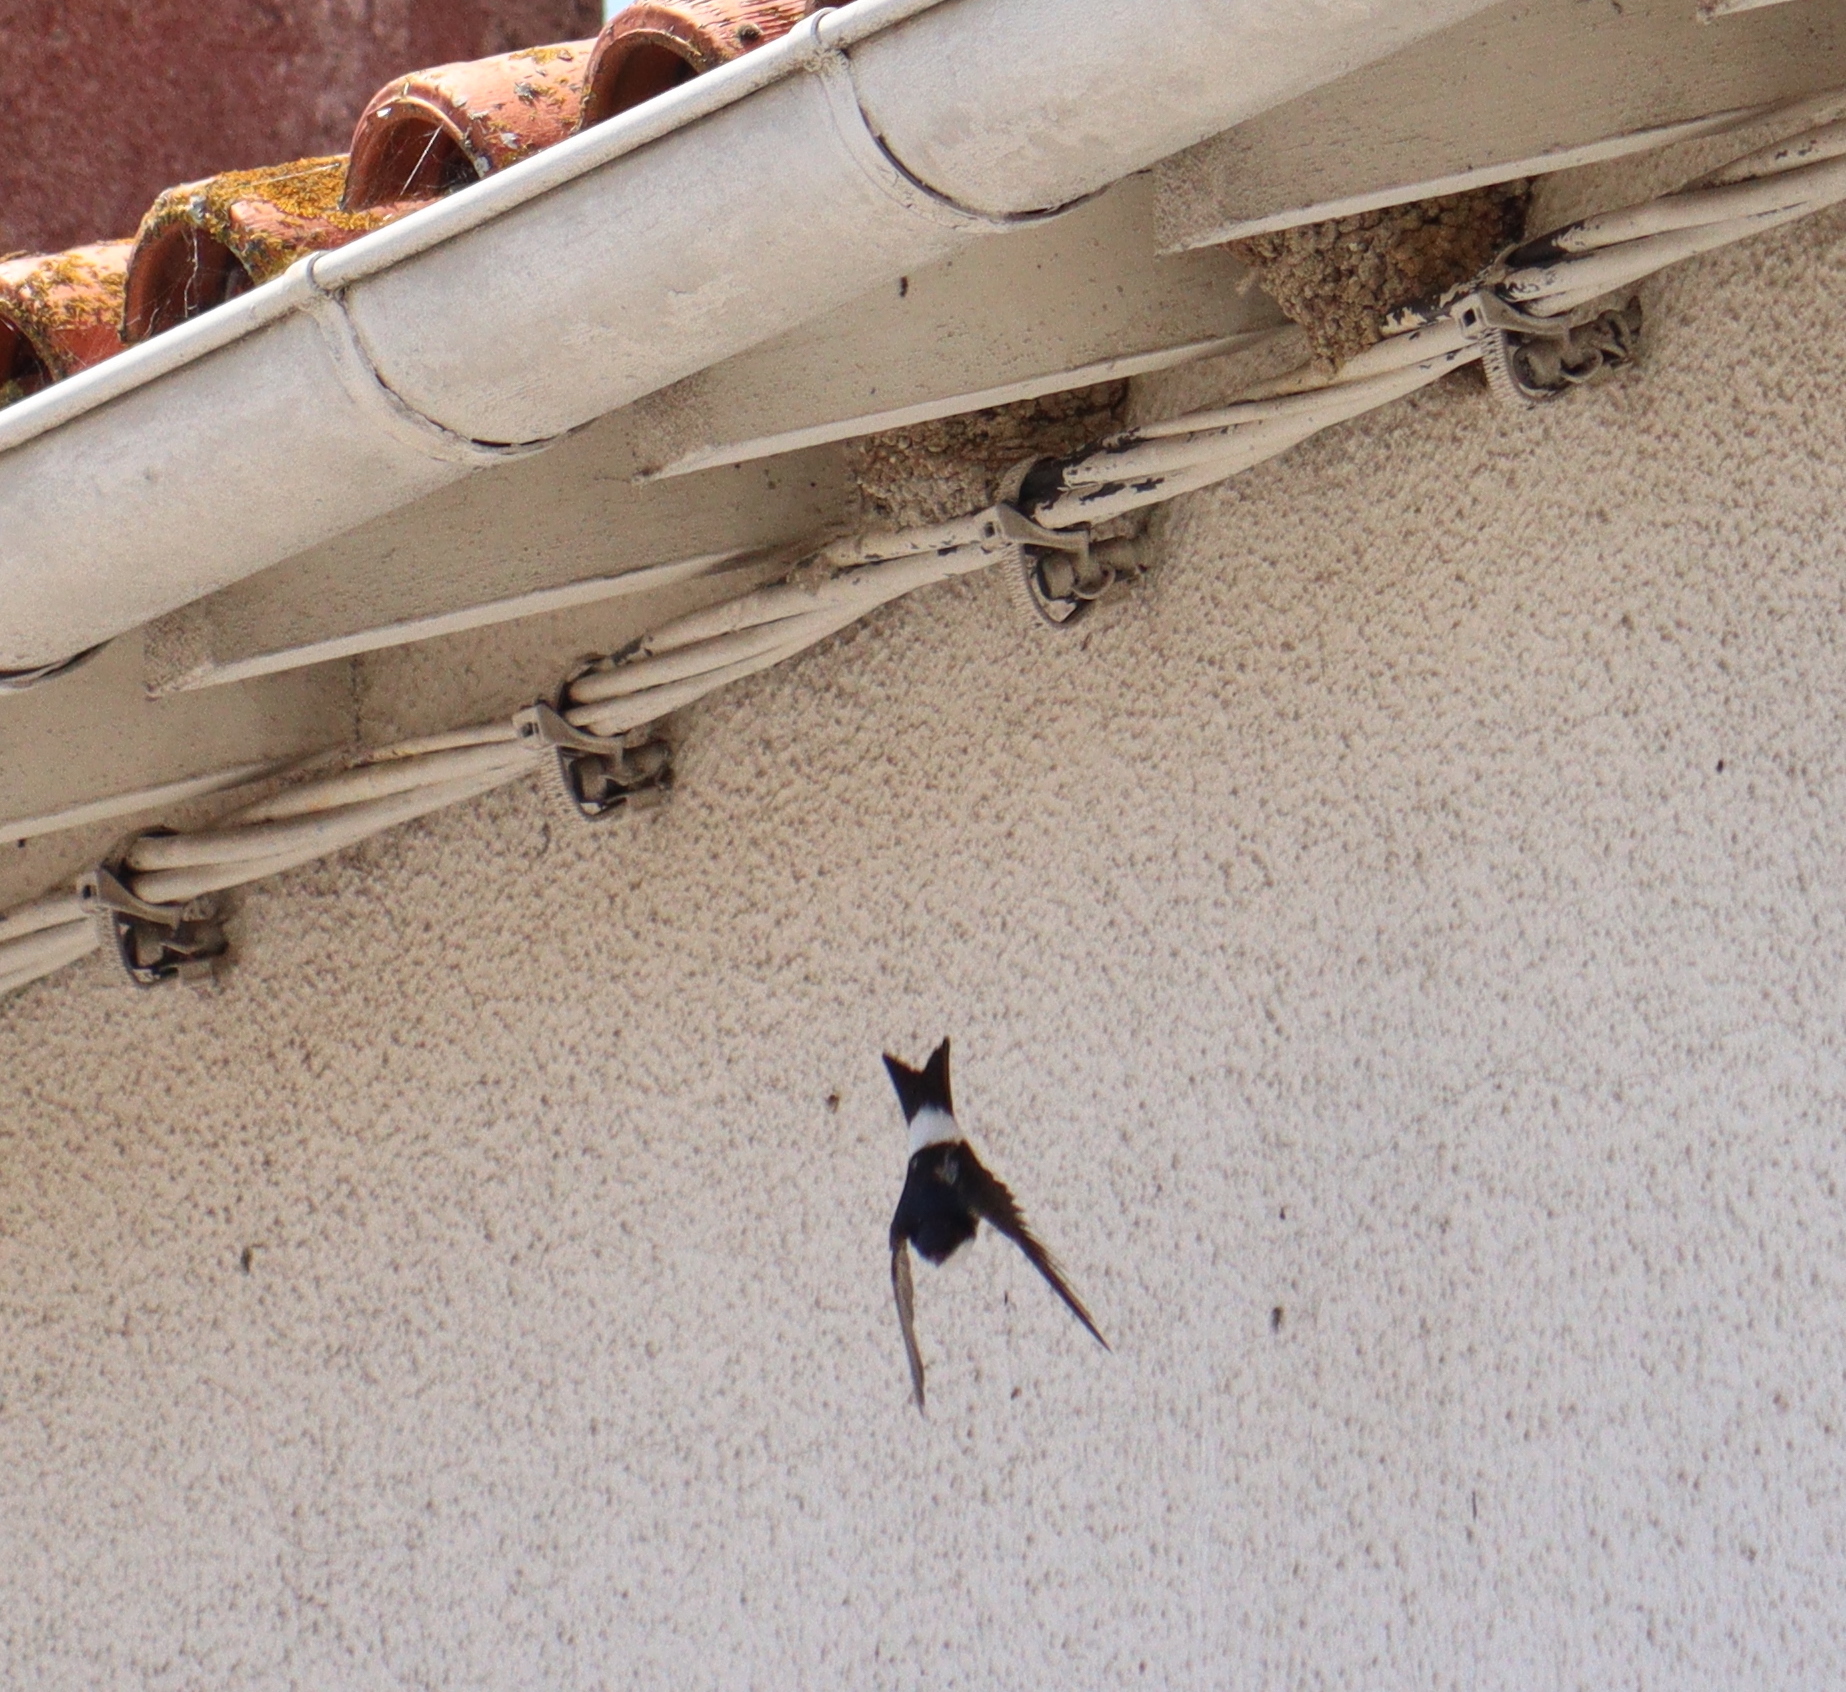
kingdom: Animalia
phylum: Chordata
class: Aves
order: Passeriformes
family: Hirundinidae
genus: Delichon
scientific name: Delichon urbicum
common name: Common house martin
